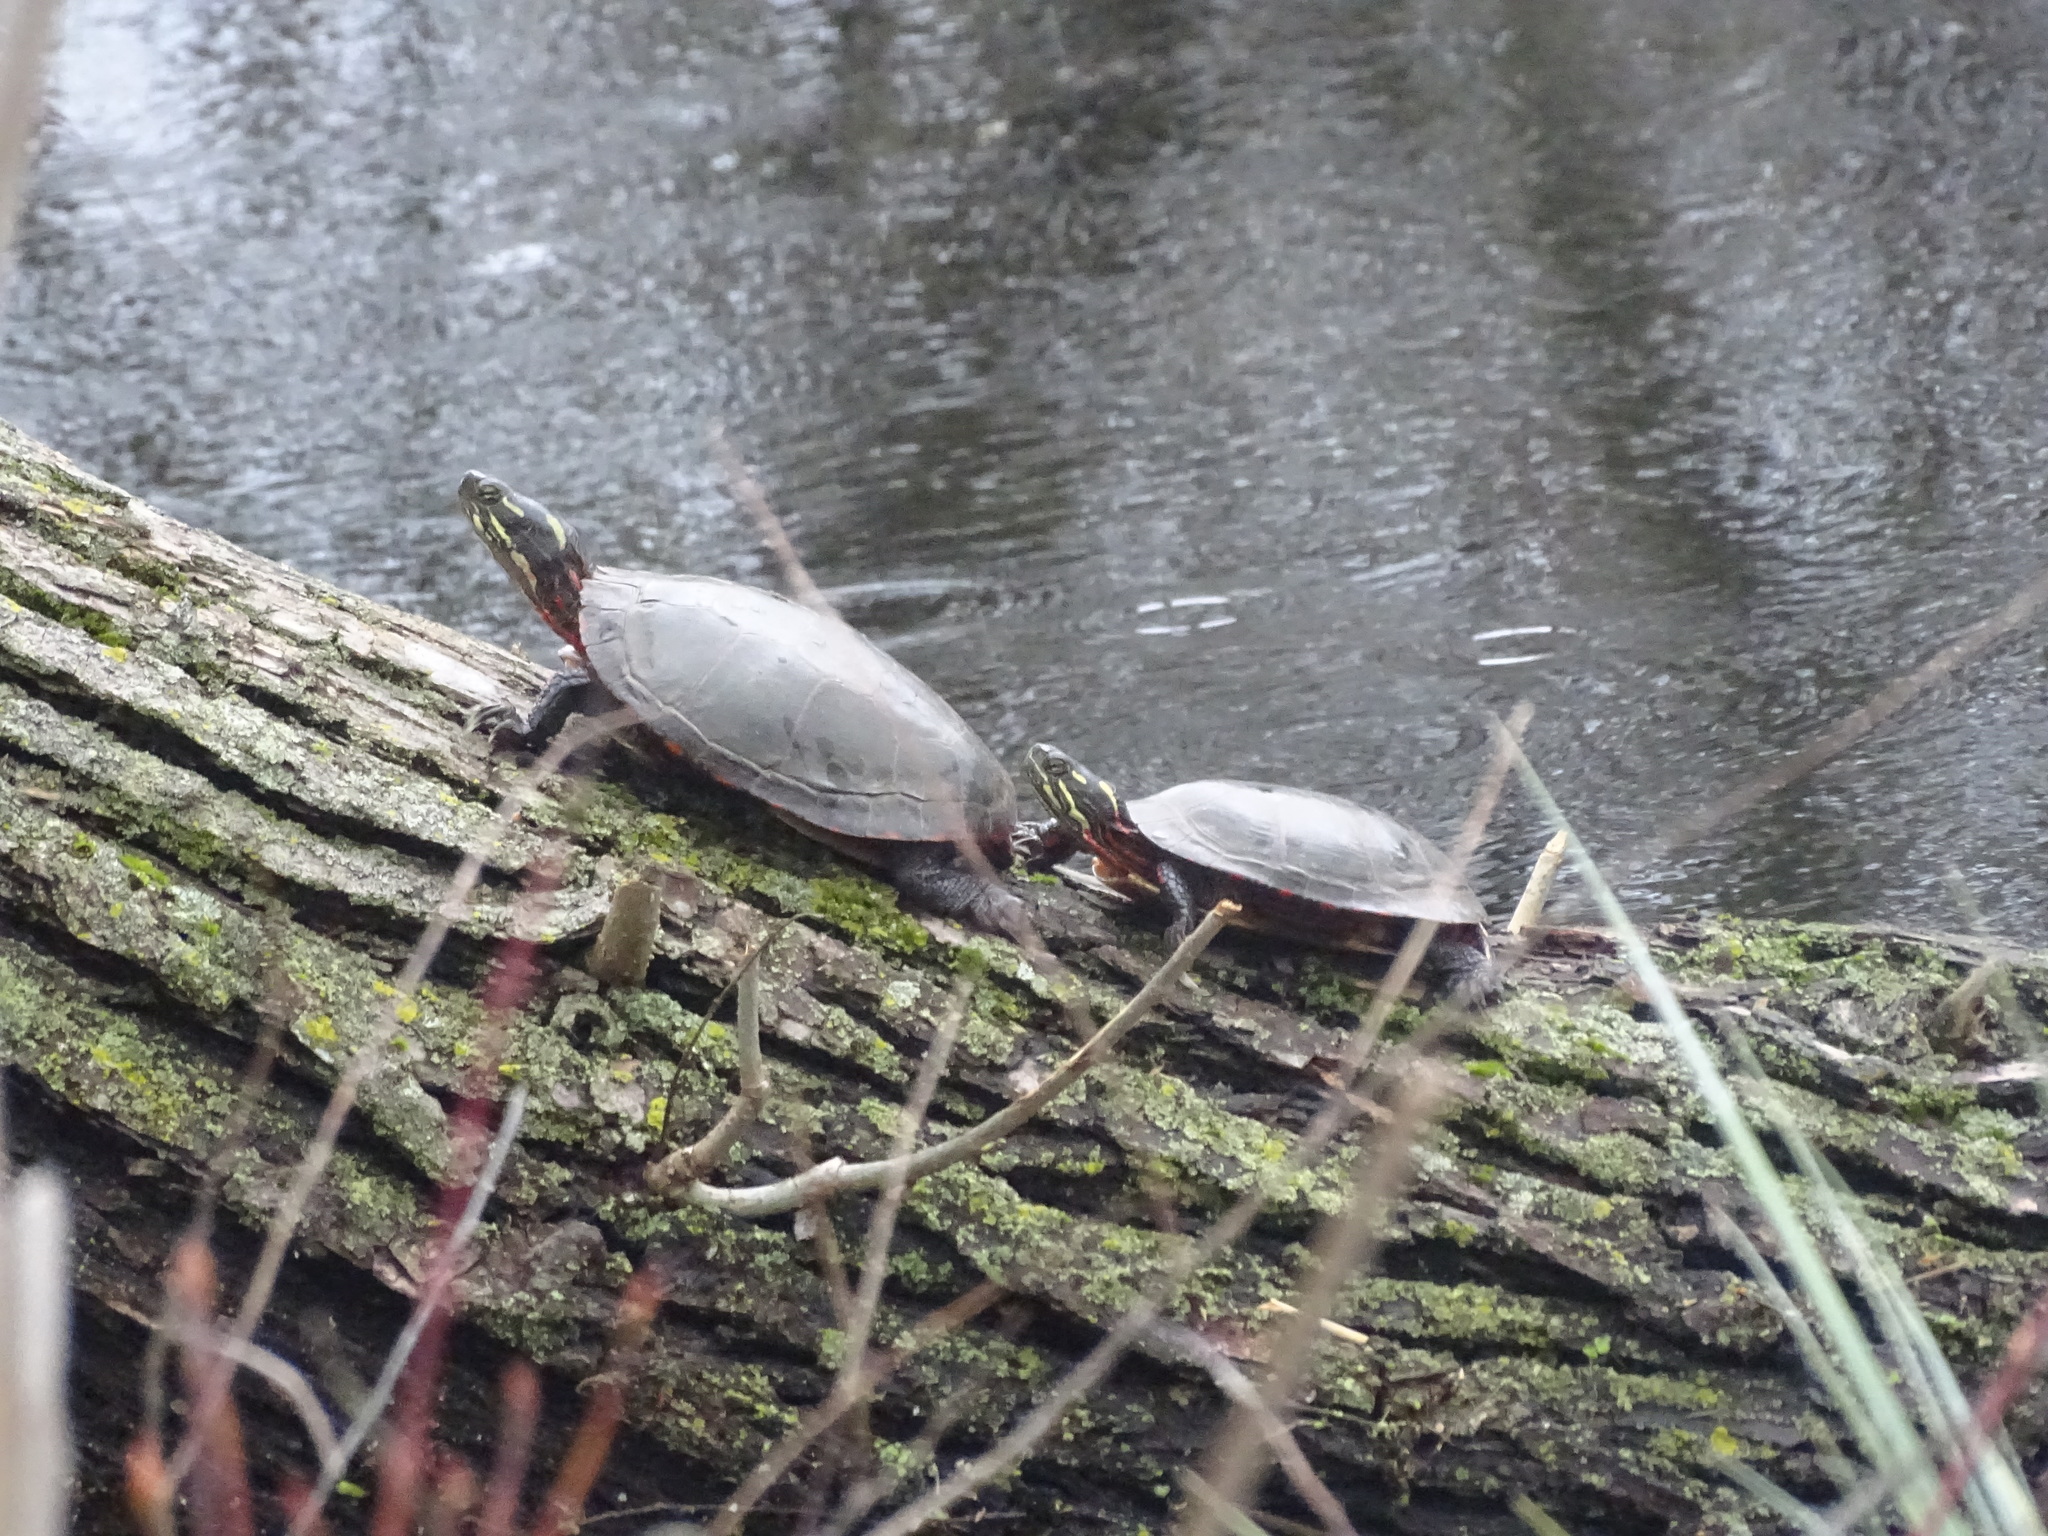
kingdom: Animalia
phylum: Chordata
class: Testudines
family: Emydidae
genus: Chrysemys
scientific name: Chrysemys picta
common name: Painted turtle
